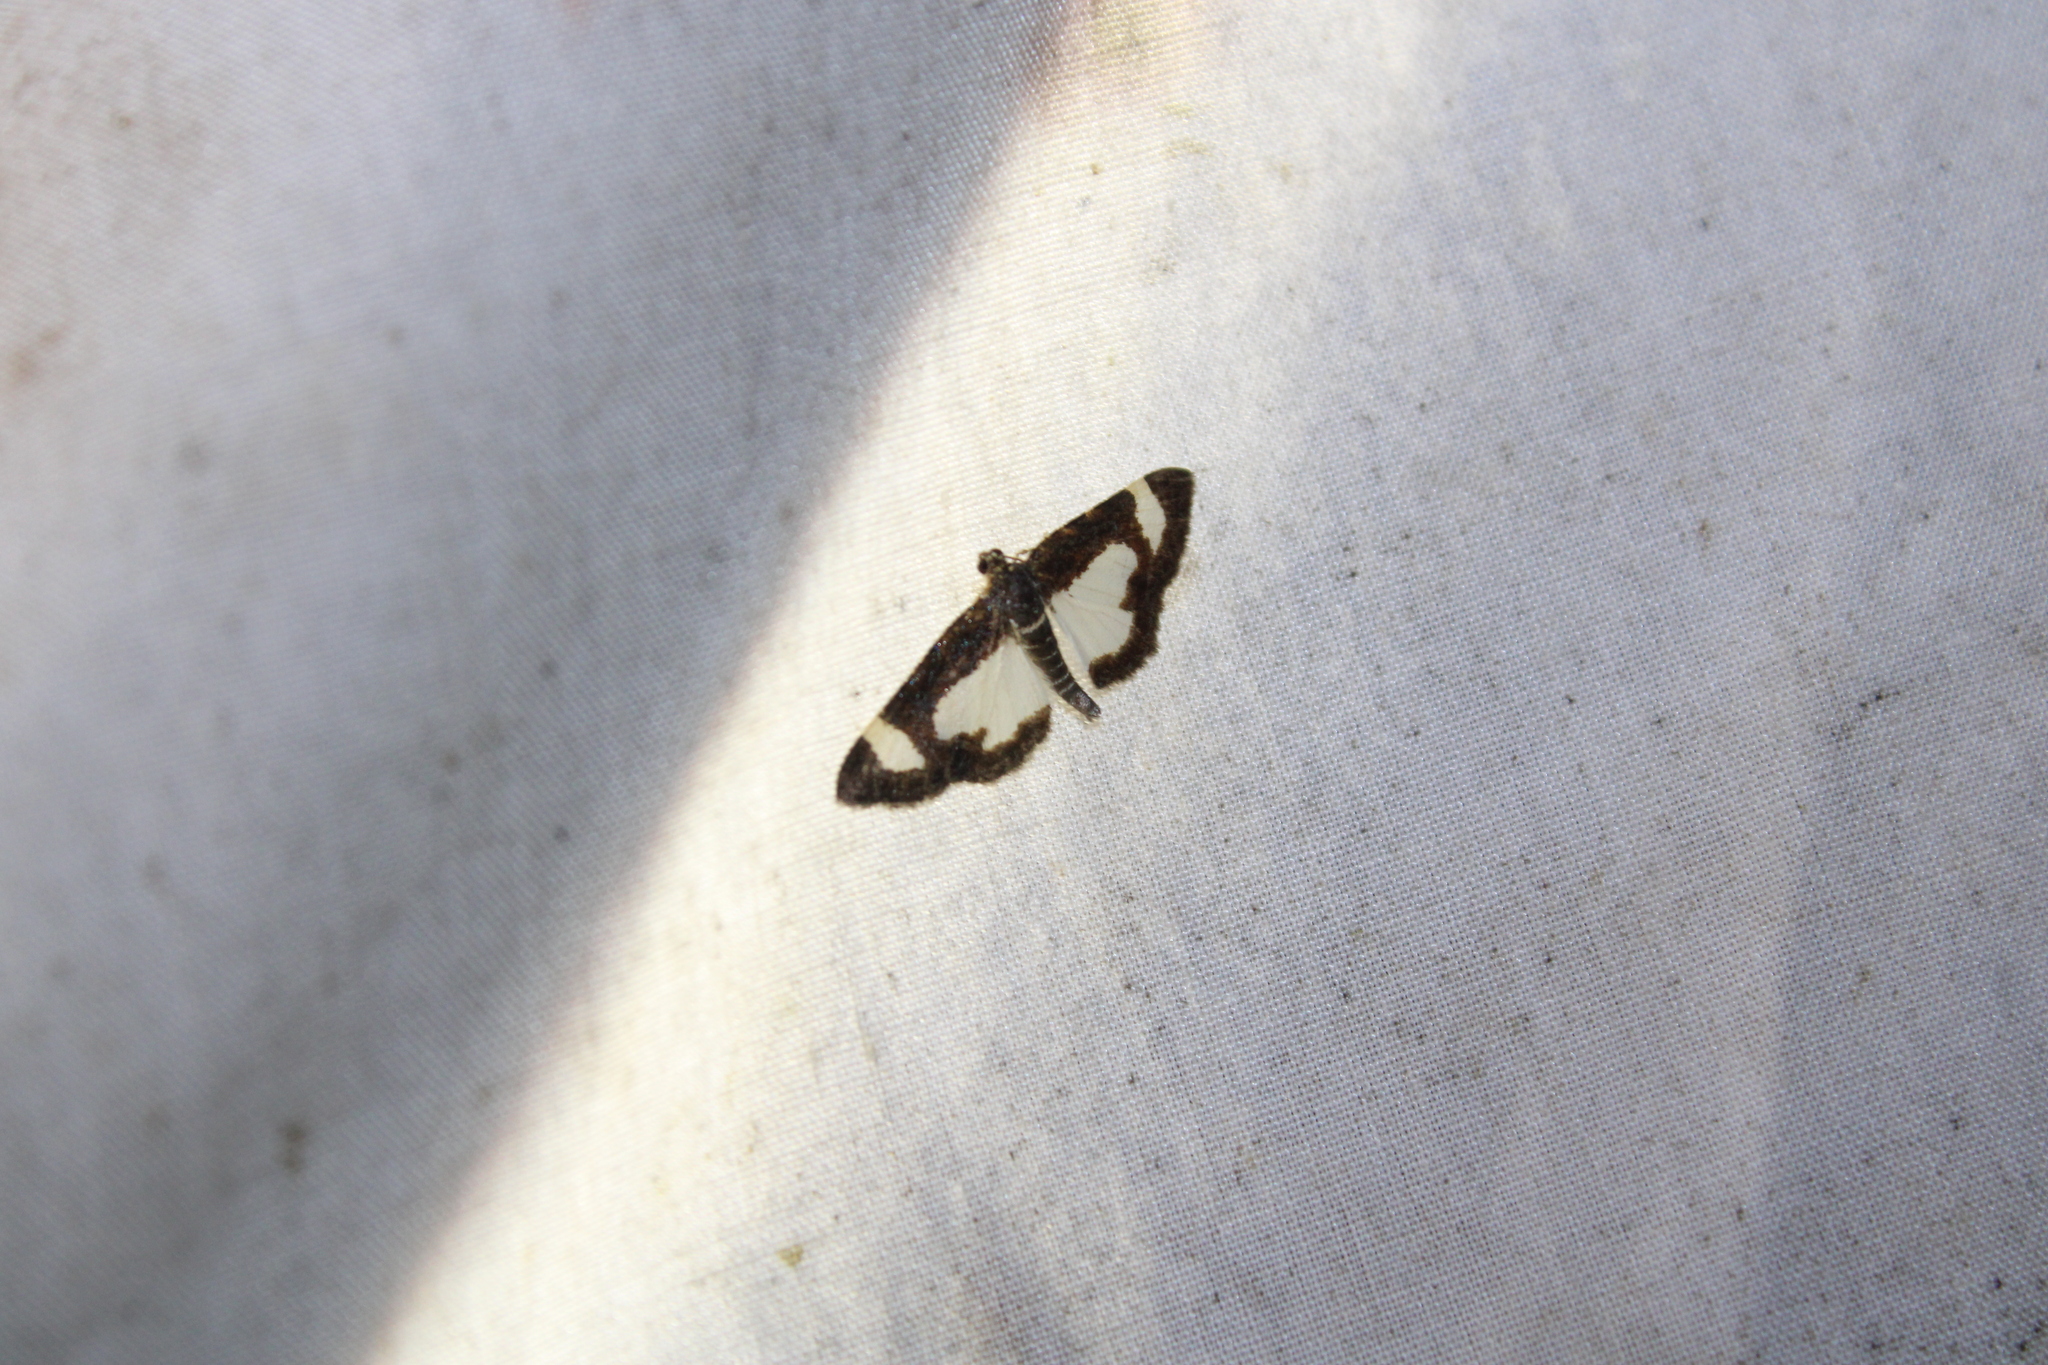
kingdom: Animalia
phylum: Arthropoda
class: Insecta
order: Lepidoptera
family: Geometridae
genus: Heliomata
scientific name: Heliomata cycladata
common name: Common spring moth
